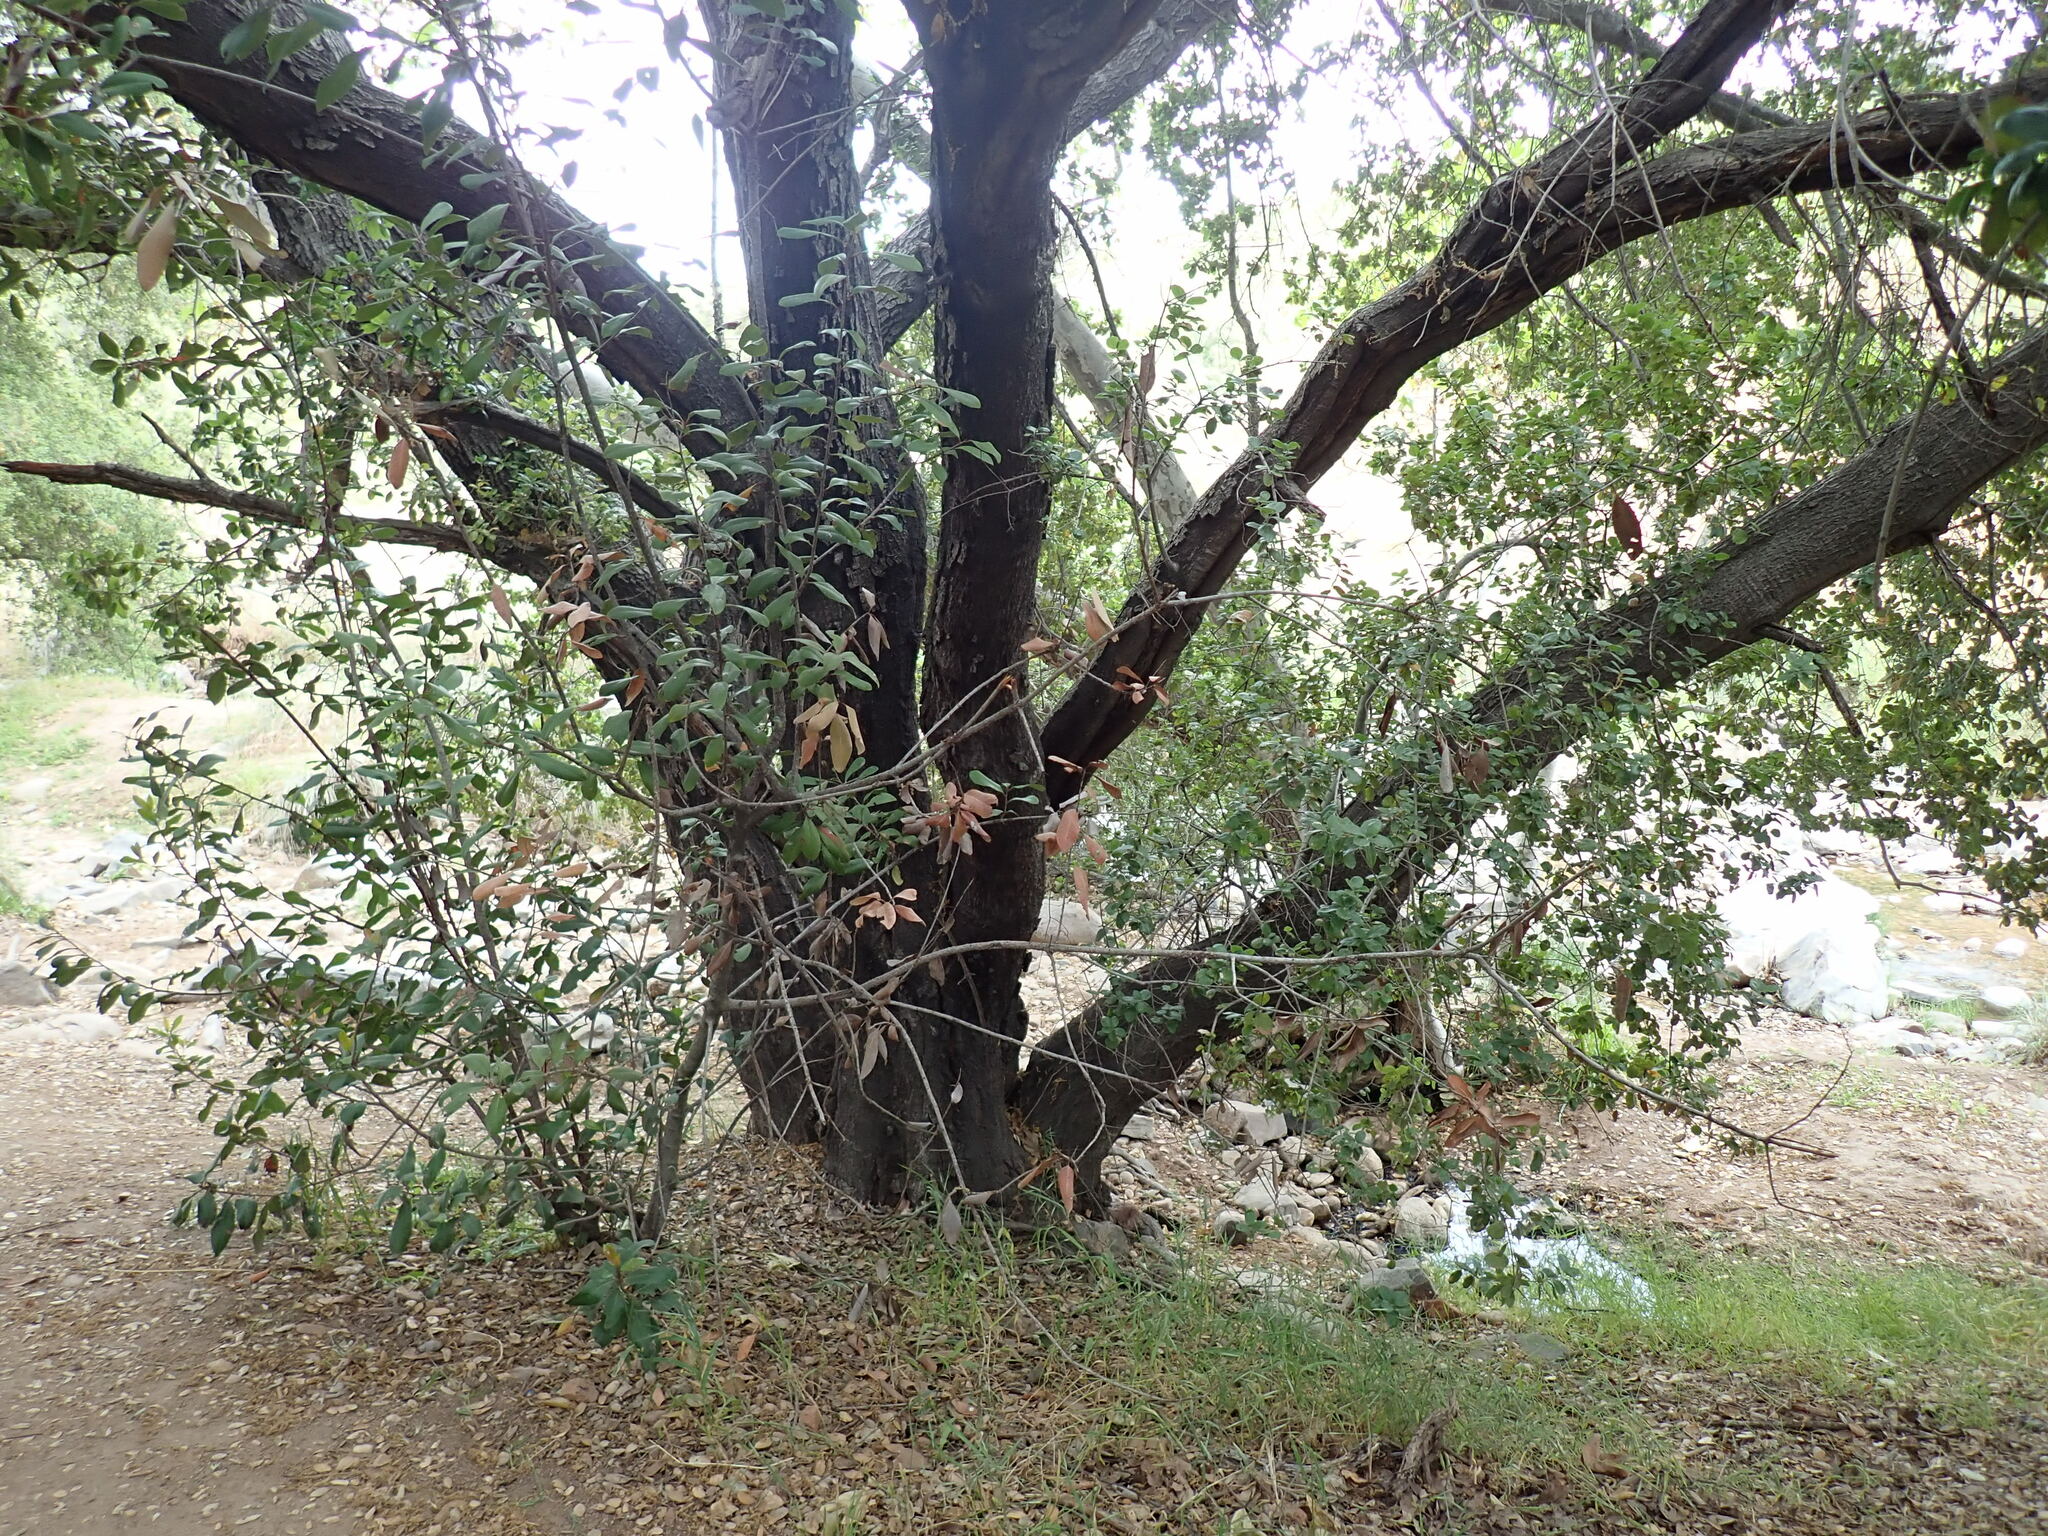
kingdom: Plantae
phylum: Tracheophyta
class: Magnoliopsida
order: Fagales
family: Fagaceae
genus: Quercus
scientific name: Quercus agrifolia
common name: California live oak
